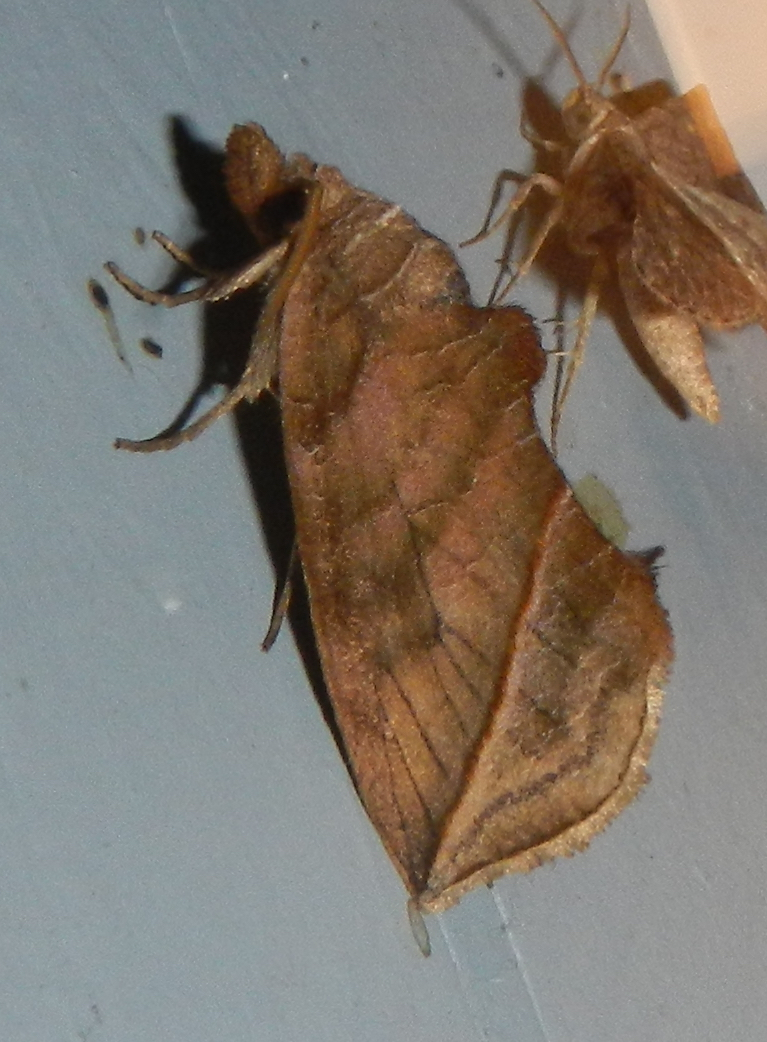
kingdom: Animalia
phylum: Arthropoda
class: Insecta
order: Lepidoptera
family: Erebidae
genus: Calyptra
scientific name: Calyptra canadensis
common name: Canadian owlet
